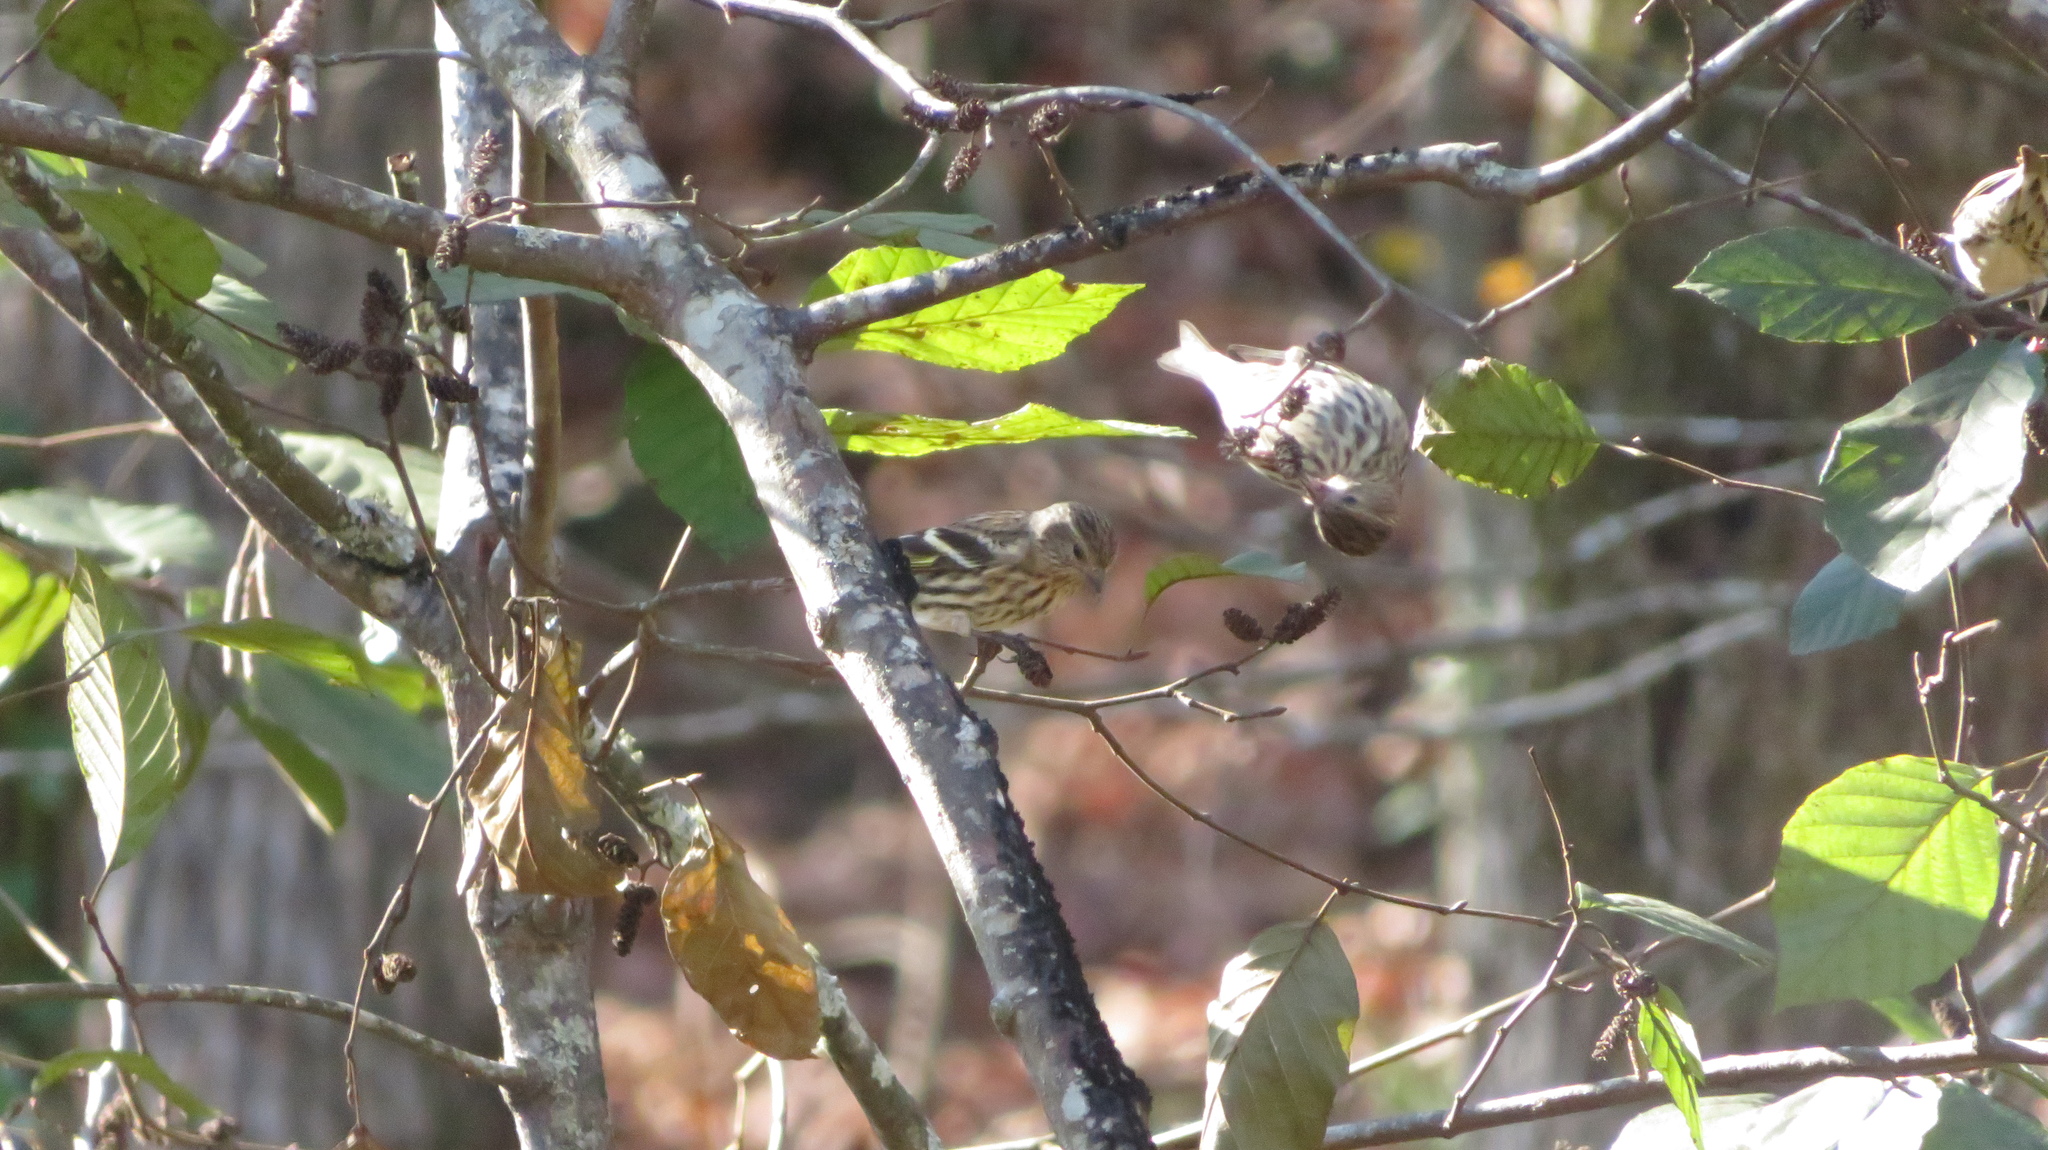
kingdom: Animalia
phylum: Chordata
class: Aves
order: Passeriformes
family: Fringillidae
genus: Spinus
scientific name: Spinus pinus
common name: Pine siskin
